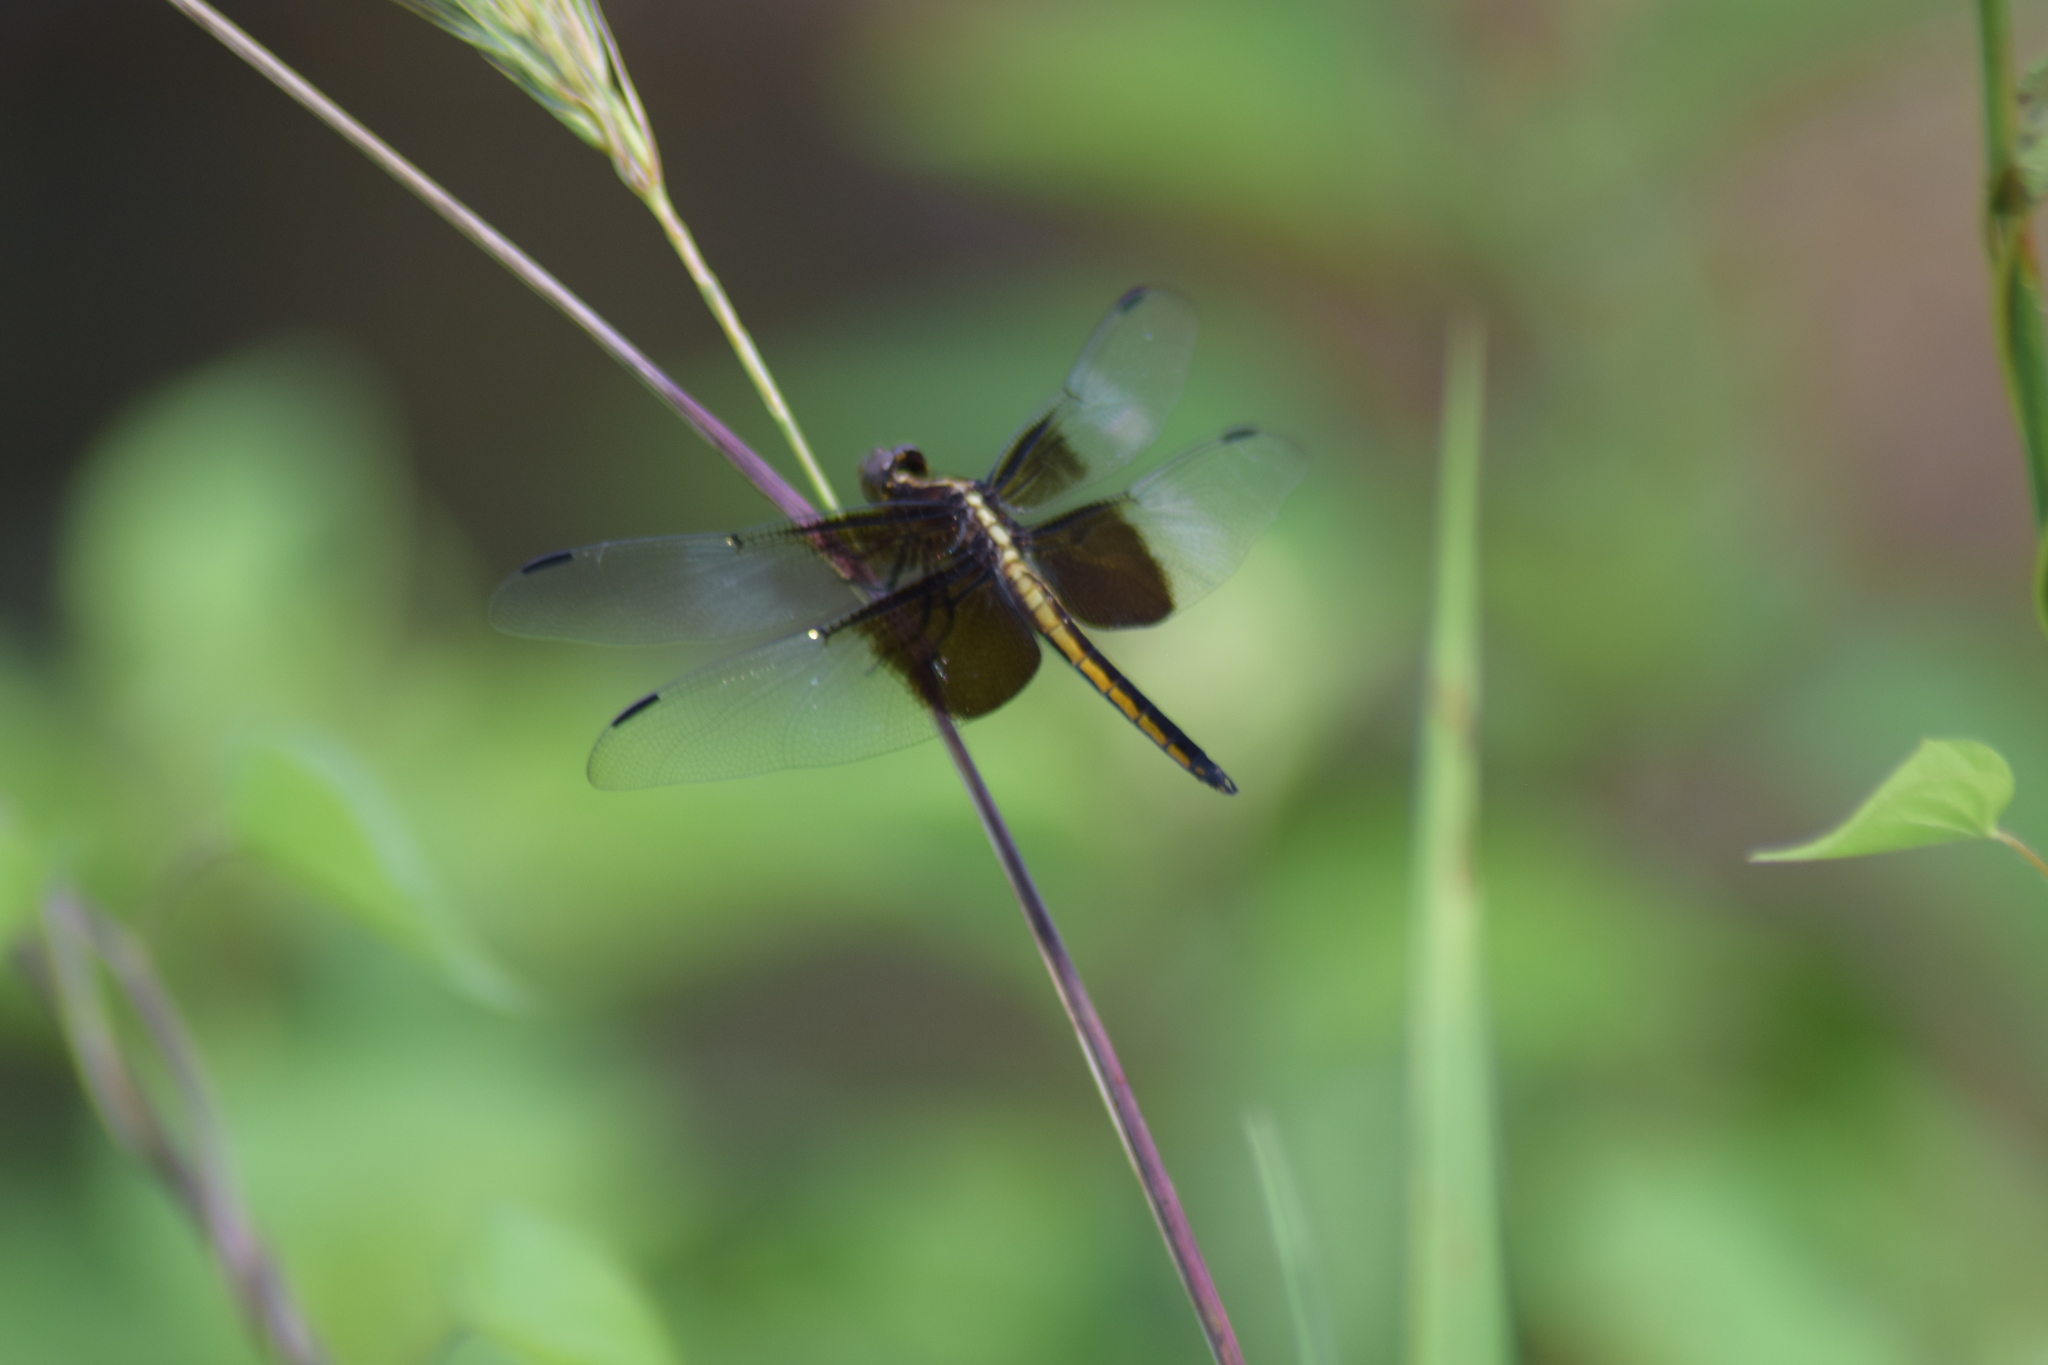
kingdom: Animalia
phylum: Arthropoda
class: Insecta
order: Odonata
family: Libellulidae
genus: Libellula
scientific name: Libellula luctuosa
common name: Widow skimmer
